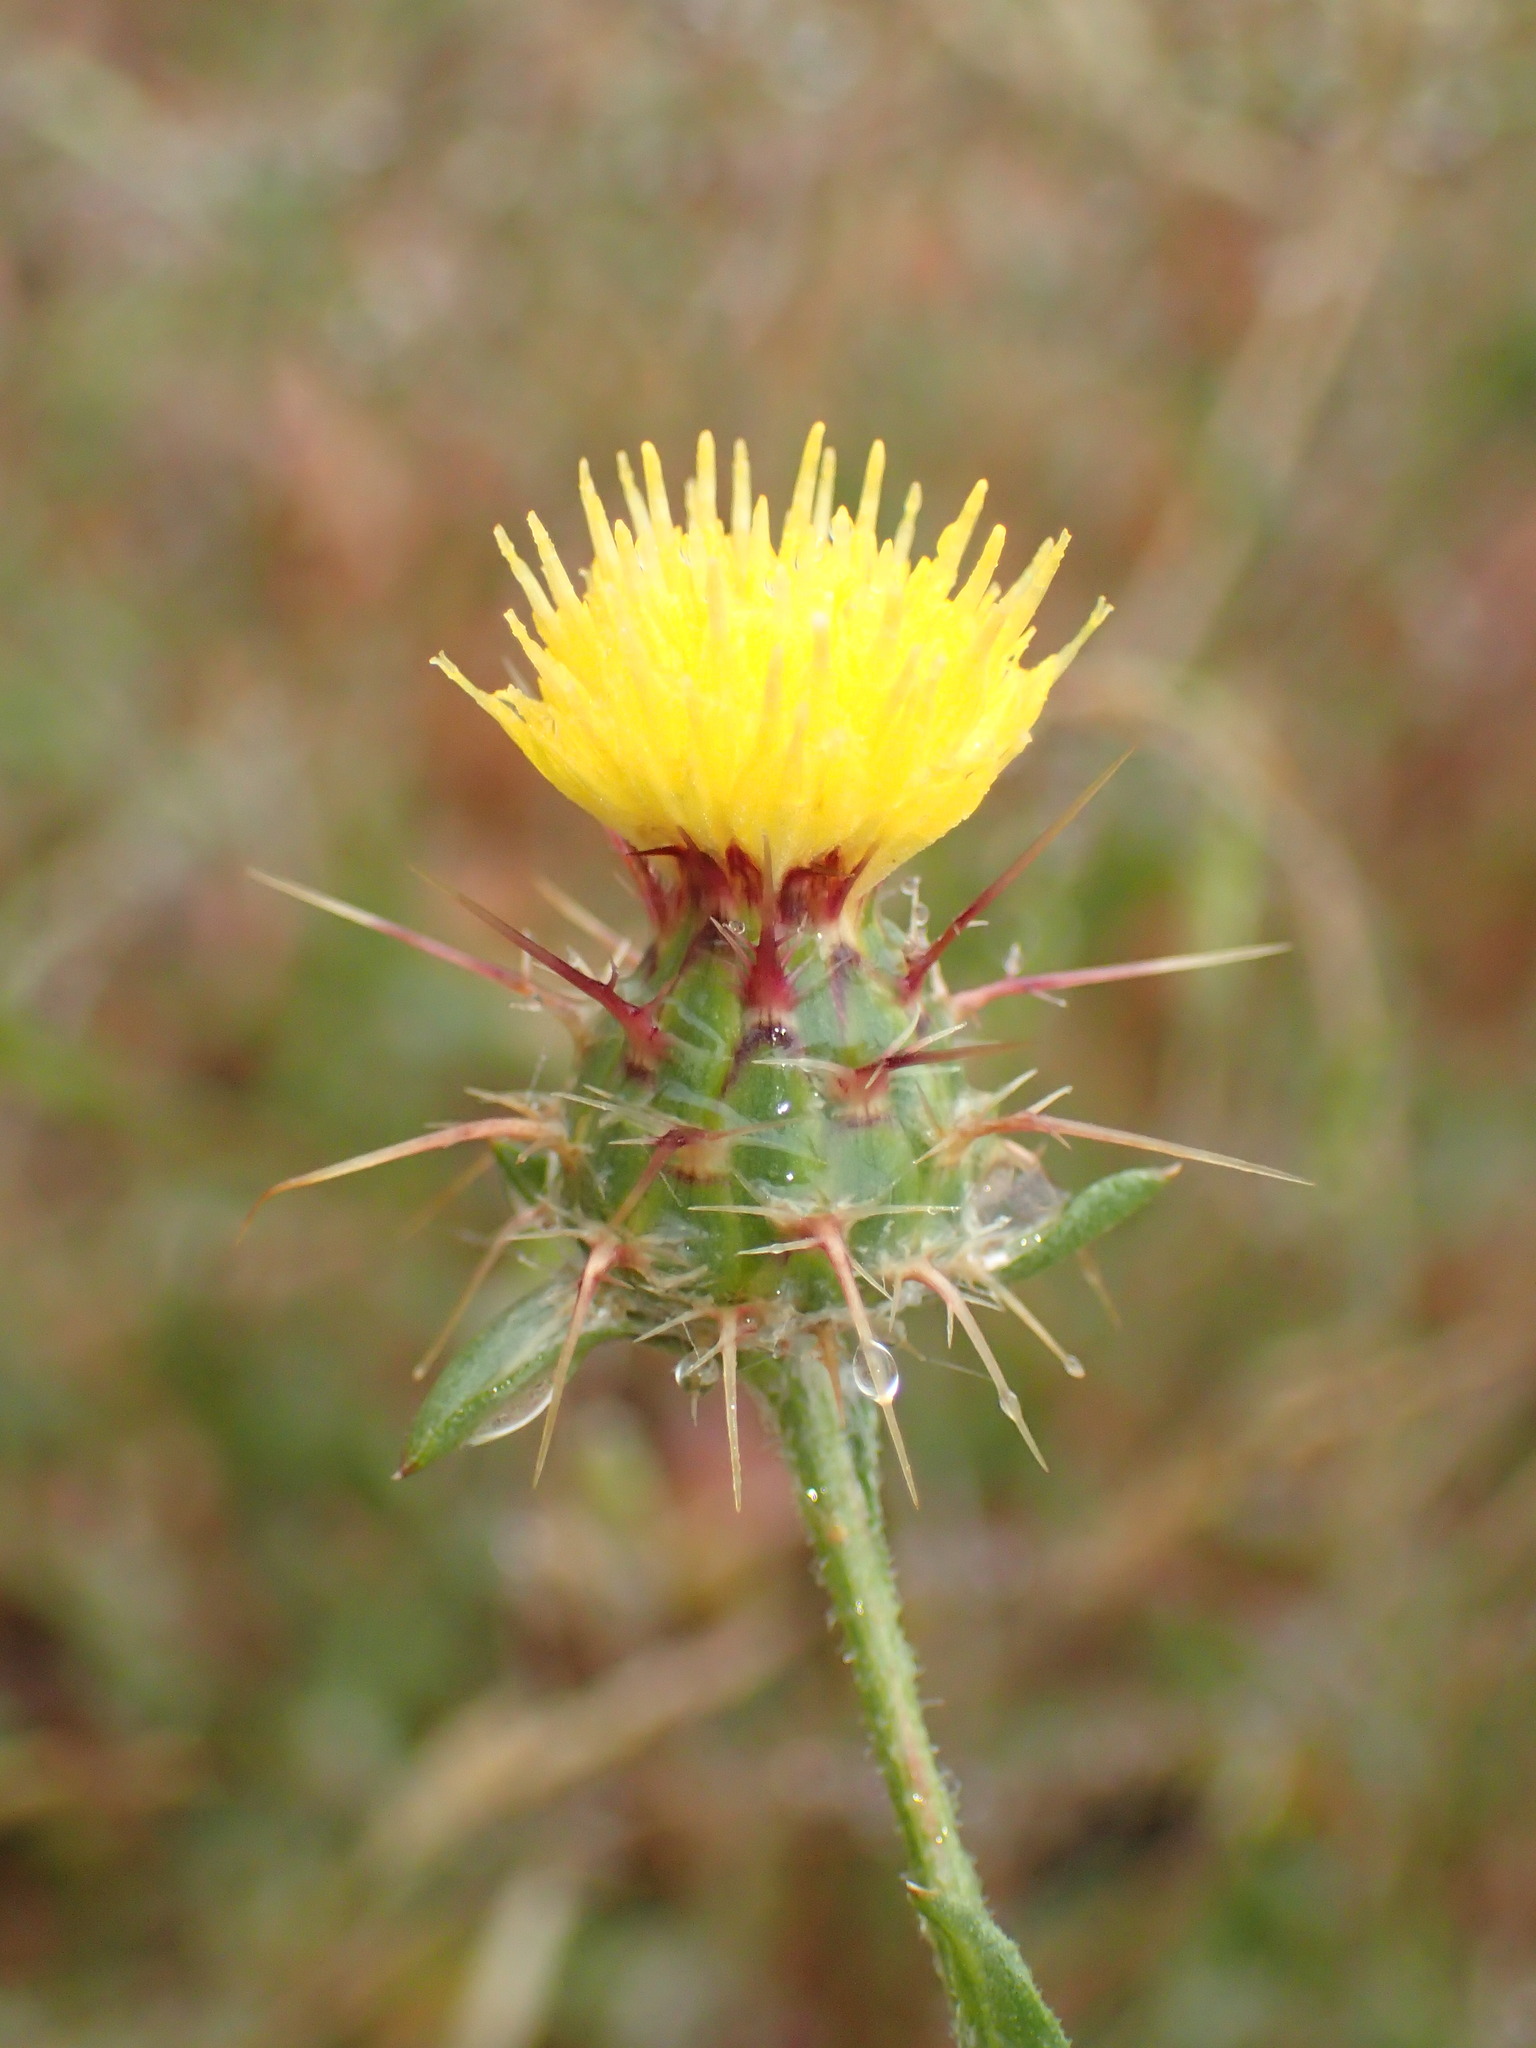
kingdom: Plantae
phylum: Tracheophyta
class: Magnoliopsida
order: Asterales
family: Asteraceae
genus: Centaurea
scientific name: Centaurea melitensis
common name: Maltese star-thistle
